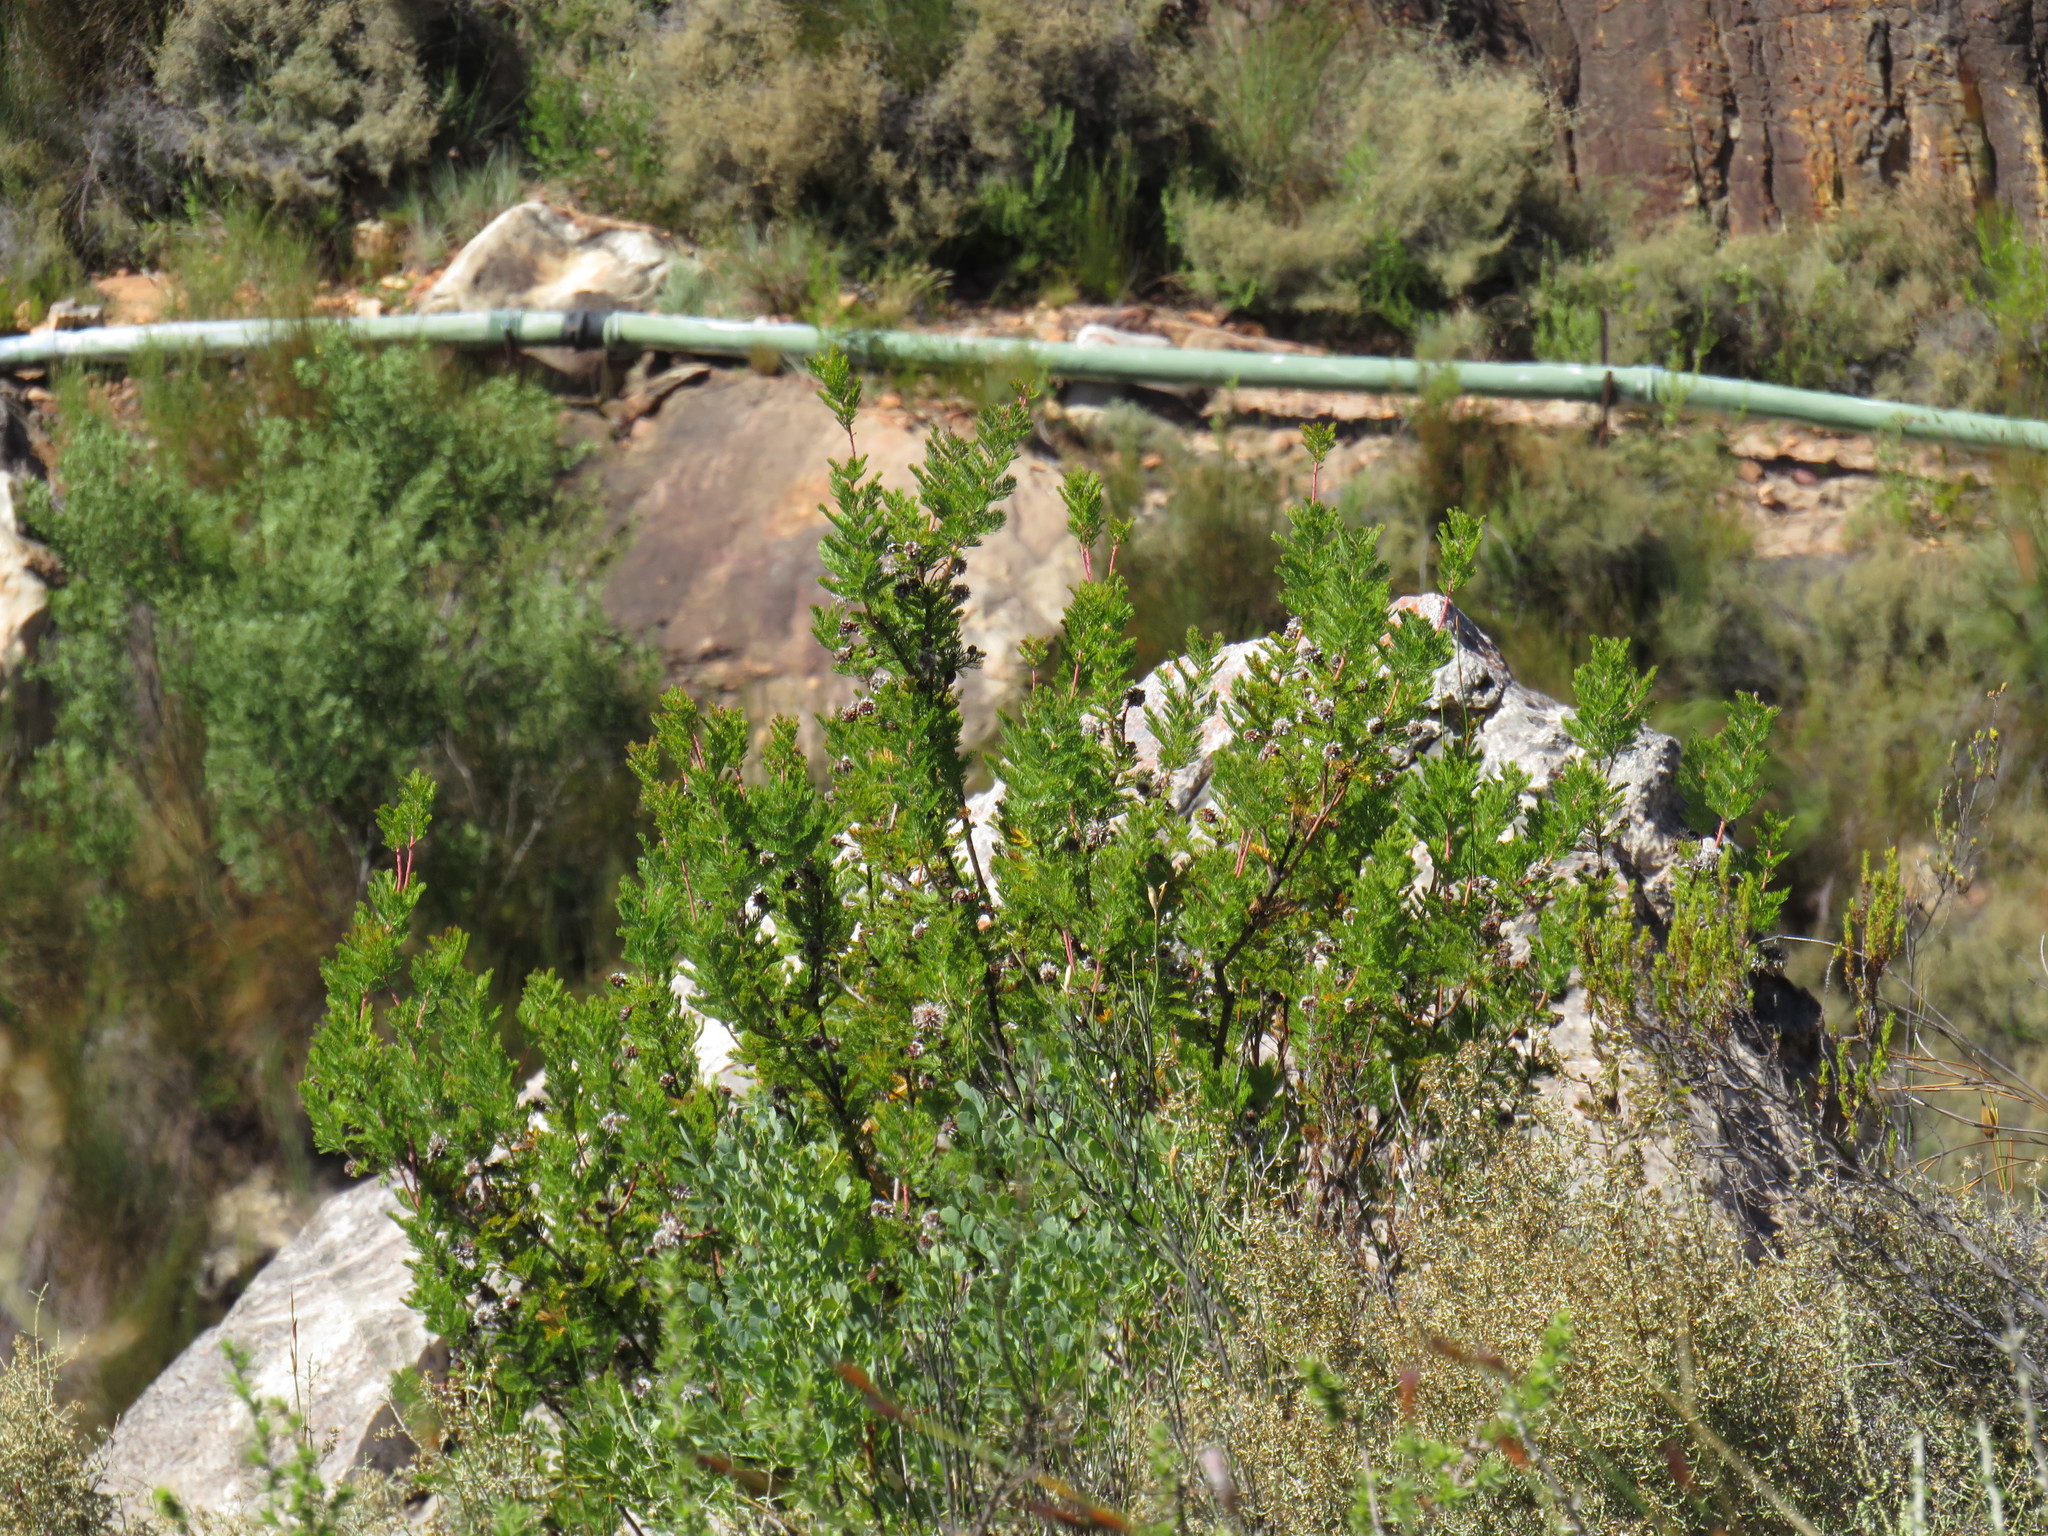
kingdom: Plantae
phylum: Tracheophyta
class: Magnoliopsida
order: Proteales
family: Proteaceae
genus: Serruria
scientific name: Serruria pedunculata
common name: Fan-leaf spiderhead
